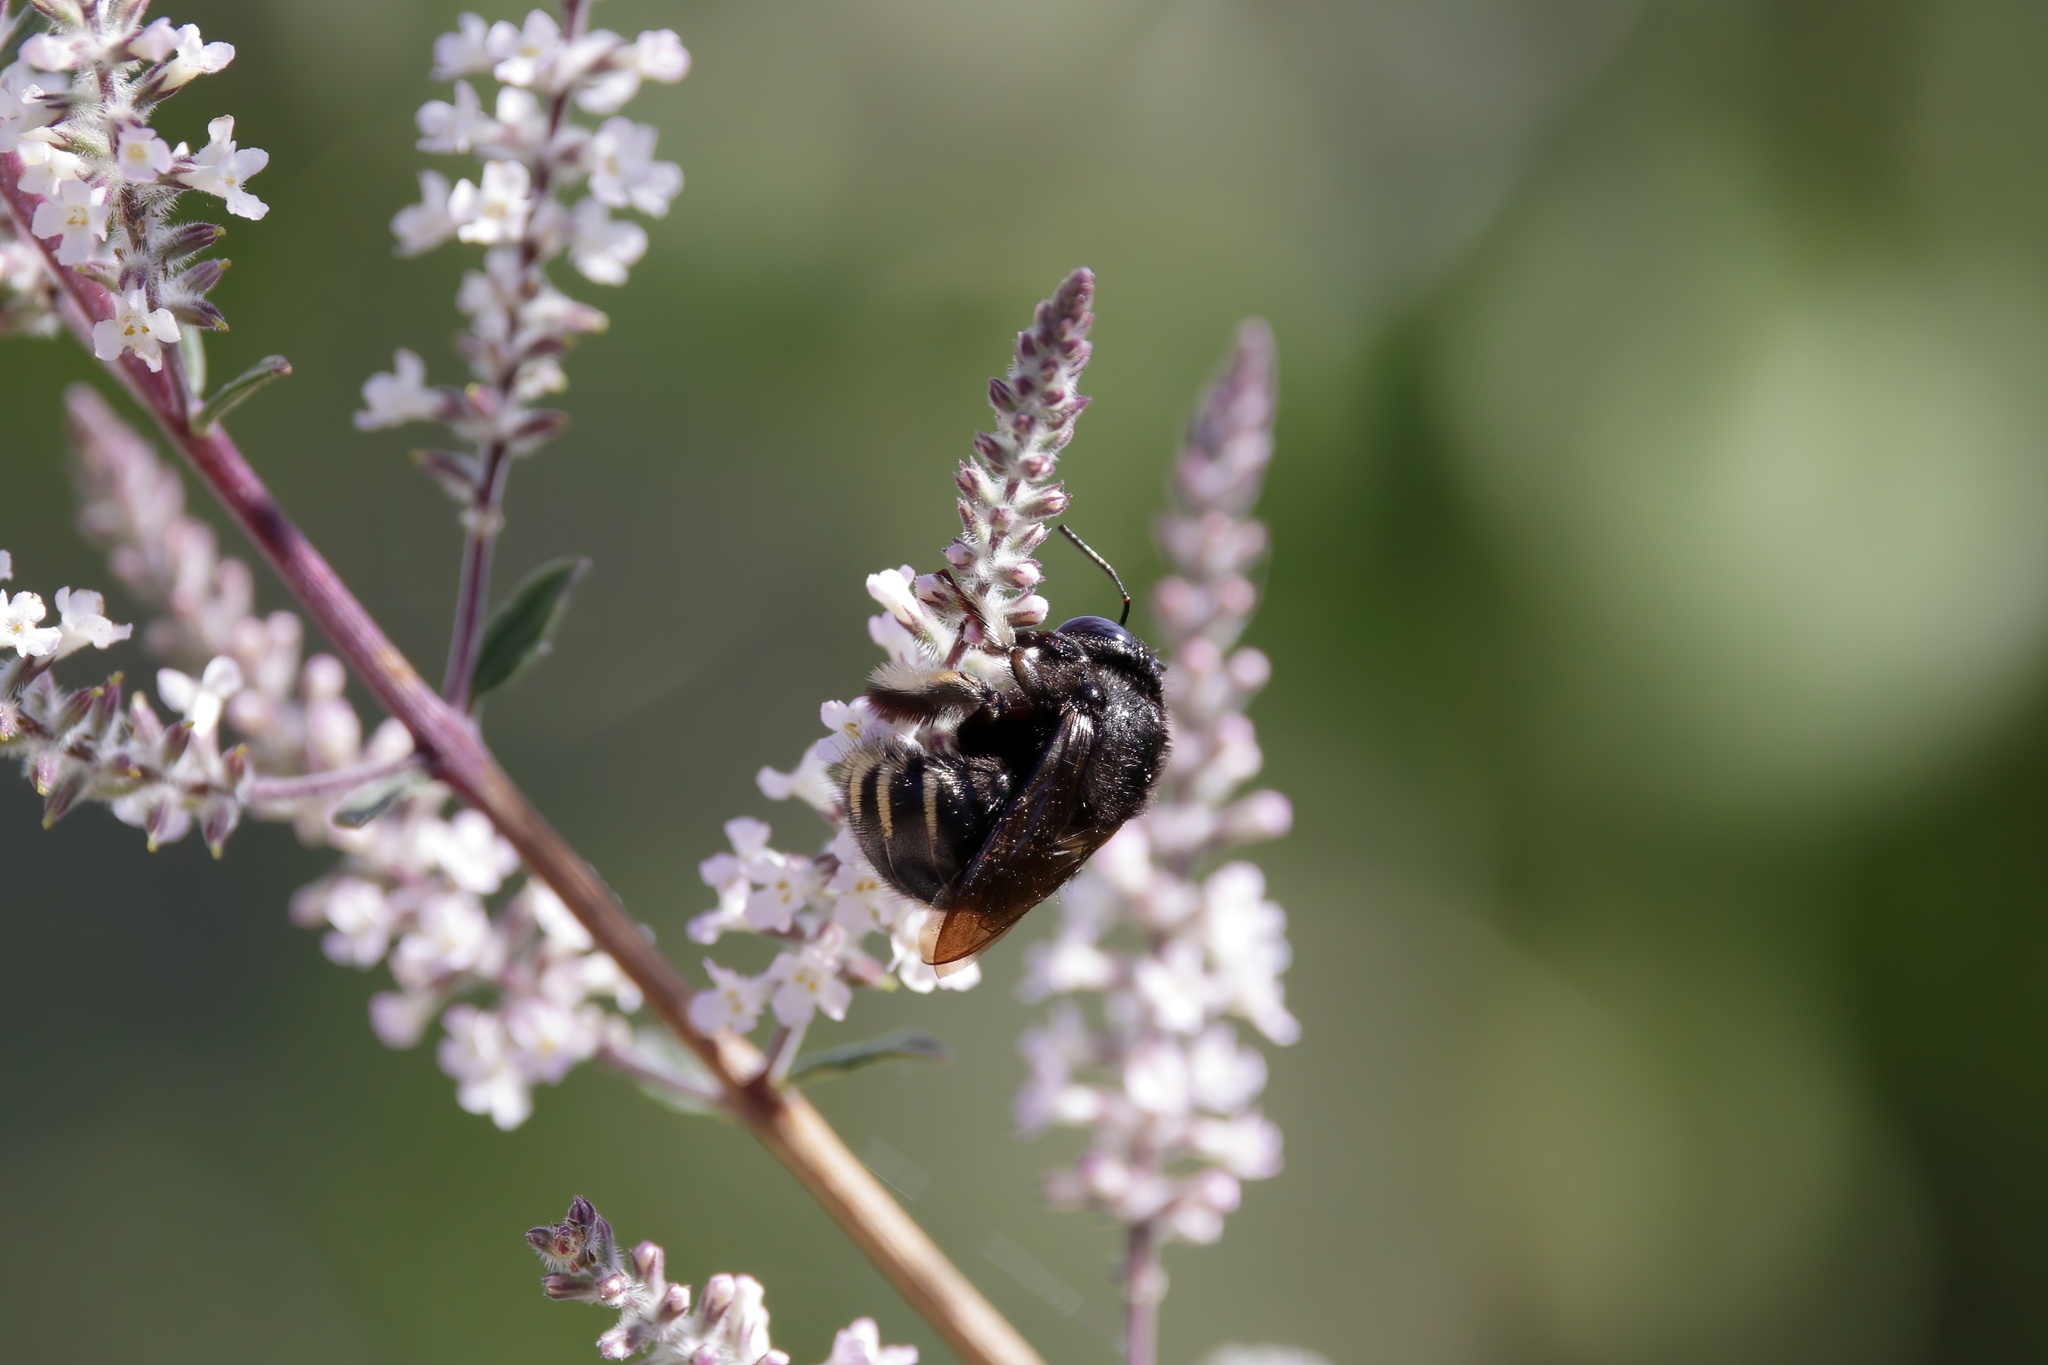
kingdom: Animalia
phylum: Arthropoda
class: Insecta
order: Hymenoptera
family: Apidae
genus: Xylocopa
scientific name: Xylocopa tabaniformis
